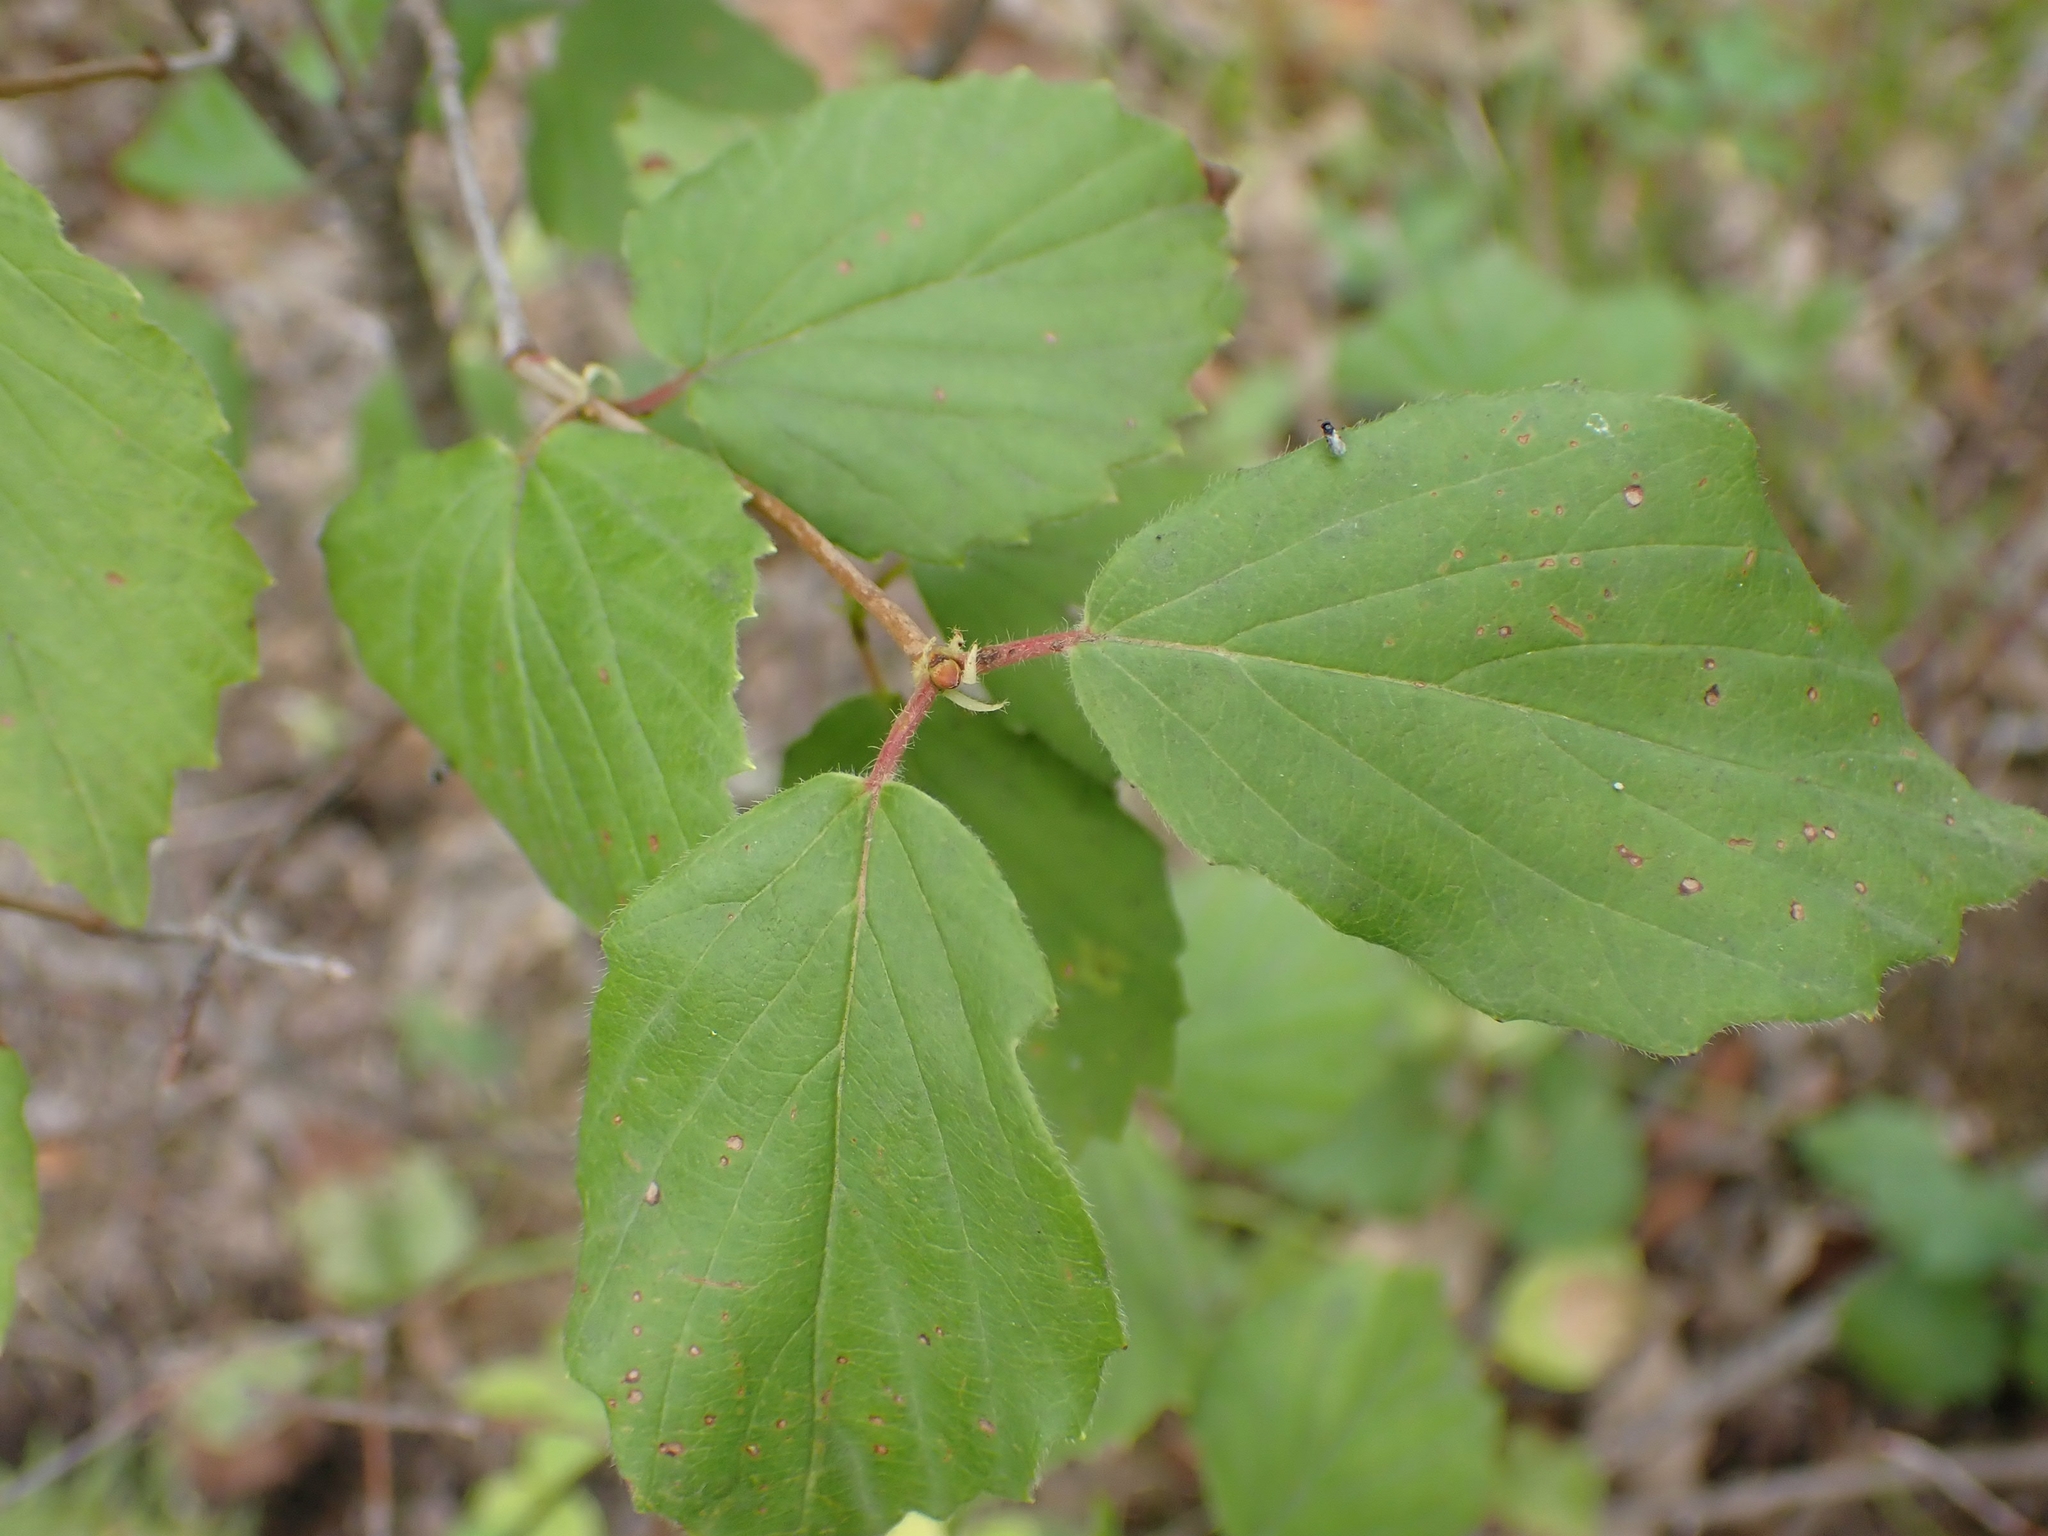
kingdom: Plantae
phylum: Tracheophyta
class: Magnoliopsida
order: Dipsacales
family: Viburnaceae
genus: Viburnum
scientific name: Viburnum rafinesqueanum
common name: Downy arrow-wood
